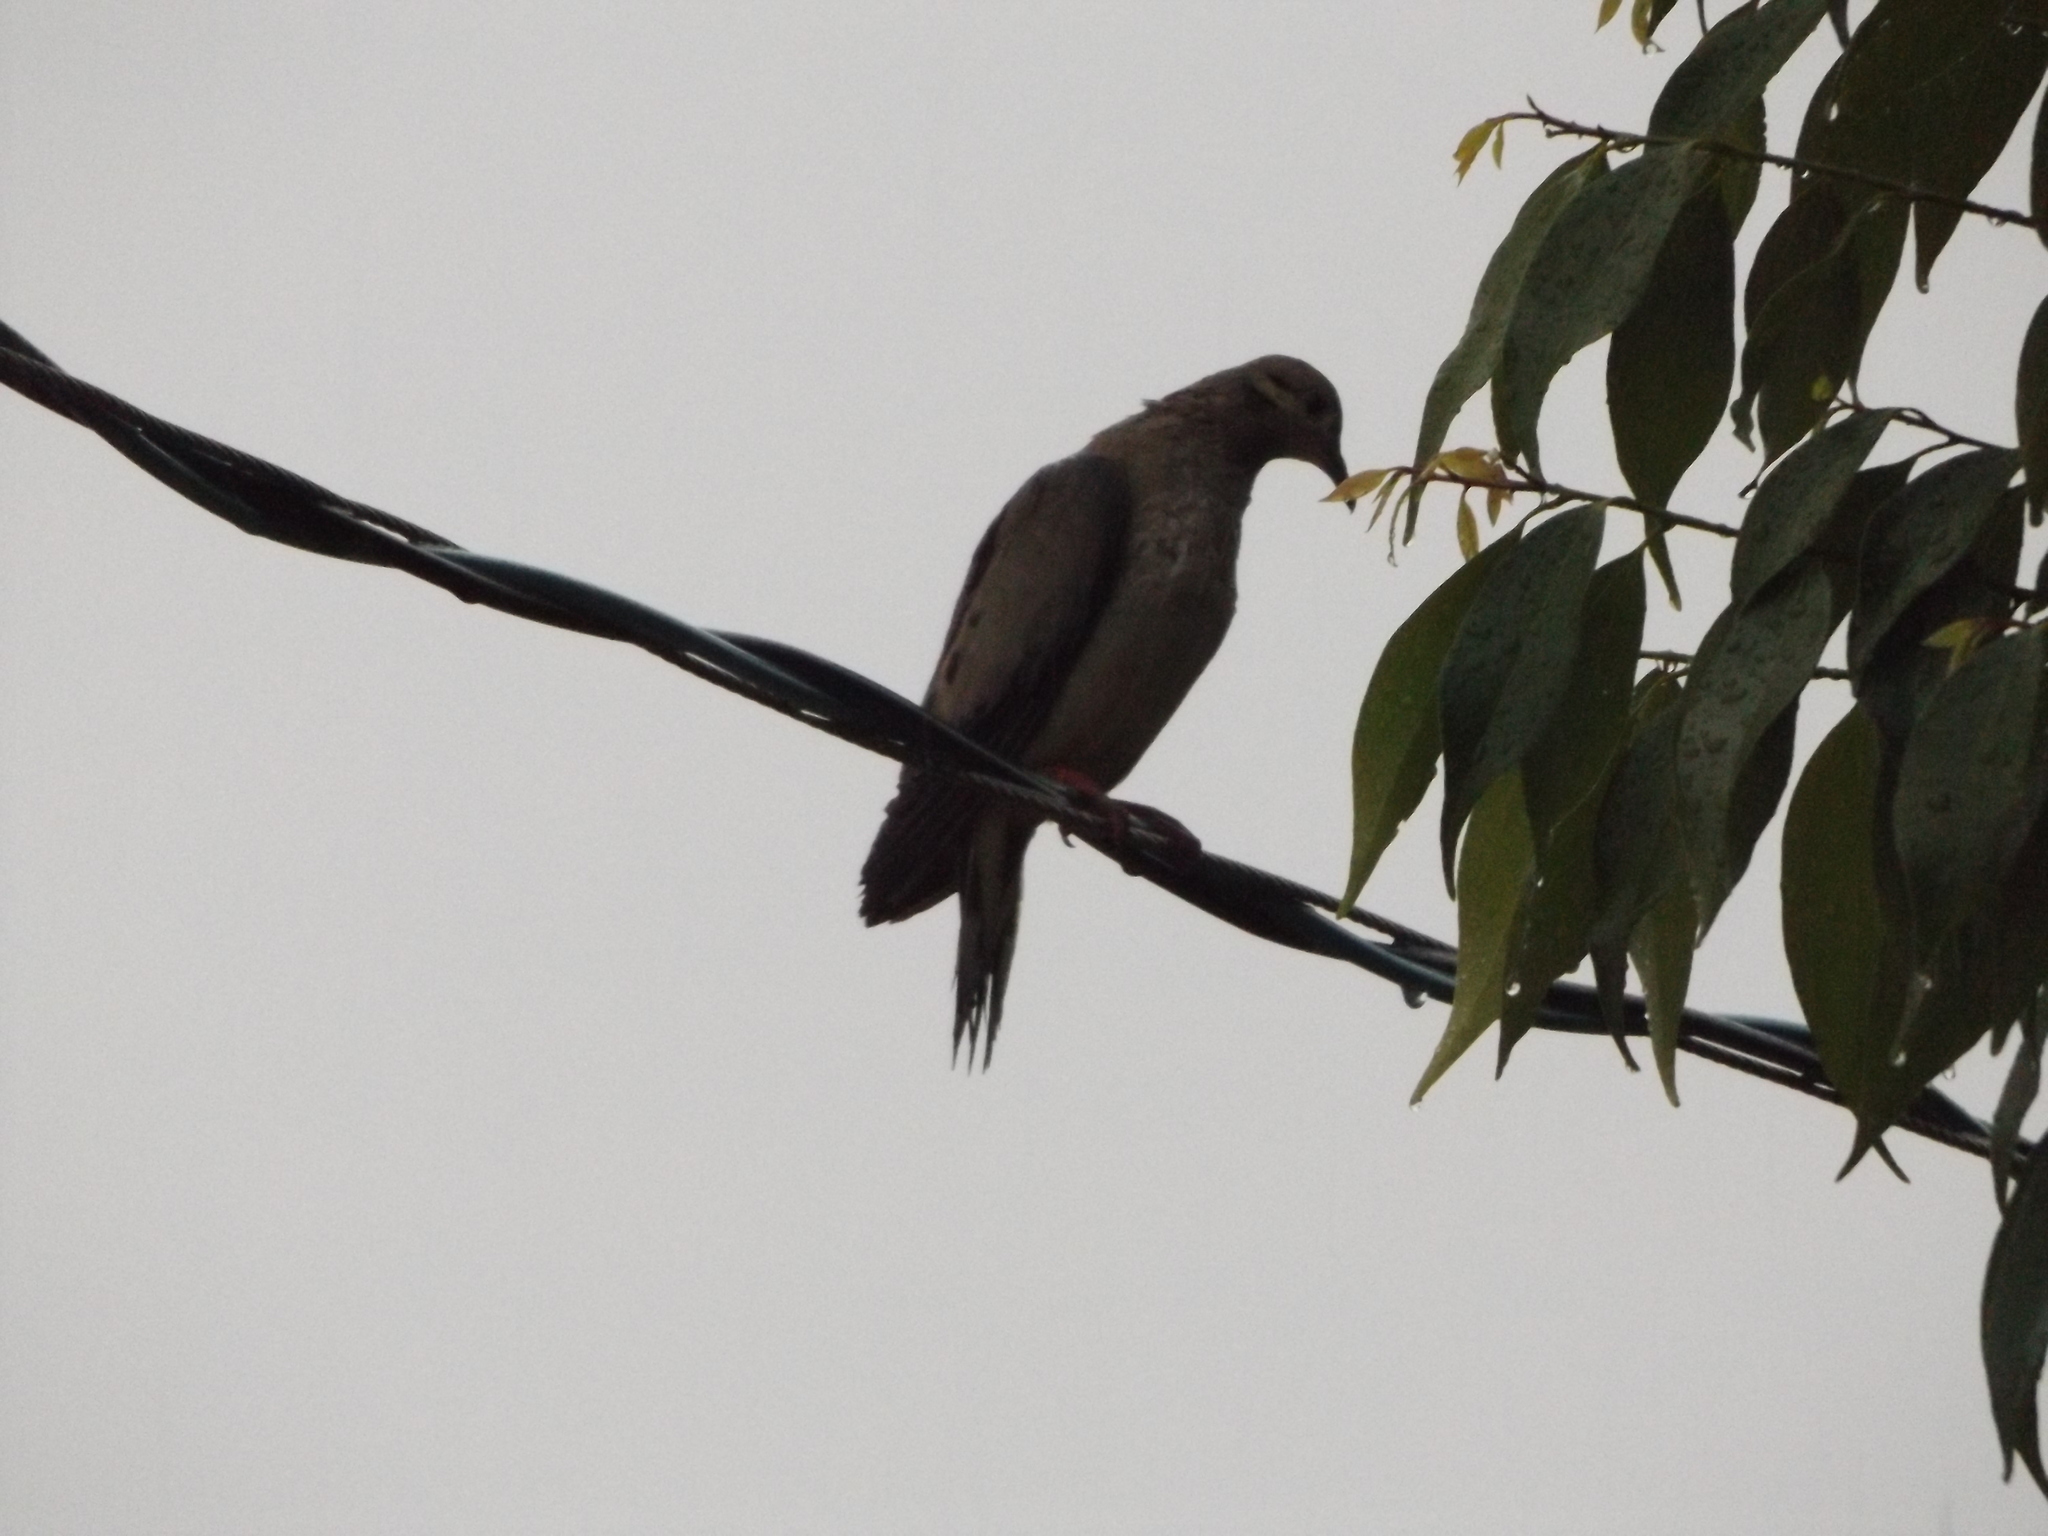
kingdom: Animalia
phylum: Chordata
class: Aves
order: Columbiformes
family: Columbidae
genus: Zenaida
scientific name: Zenaida auriculata
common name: Eared dove
